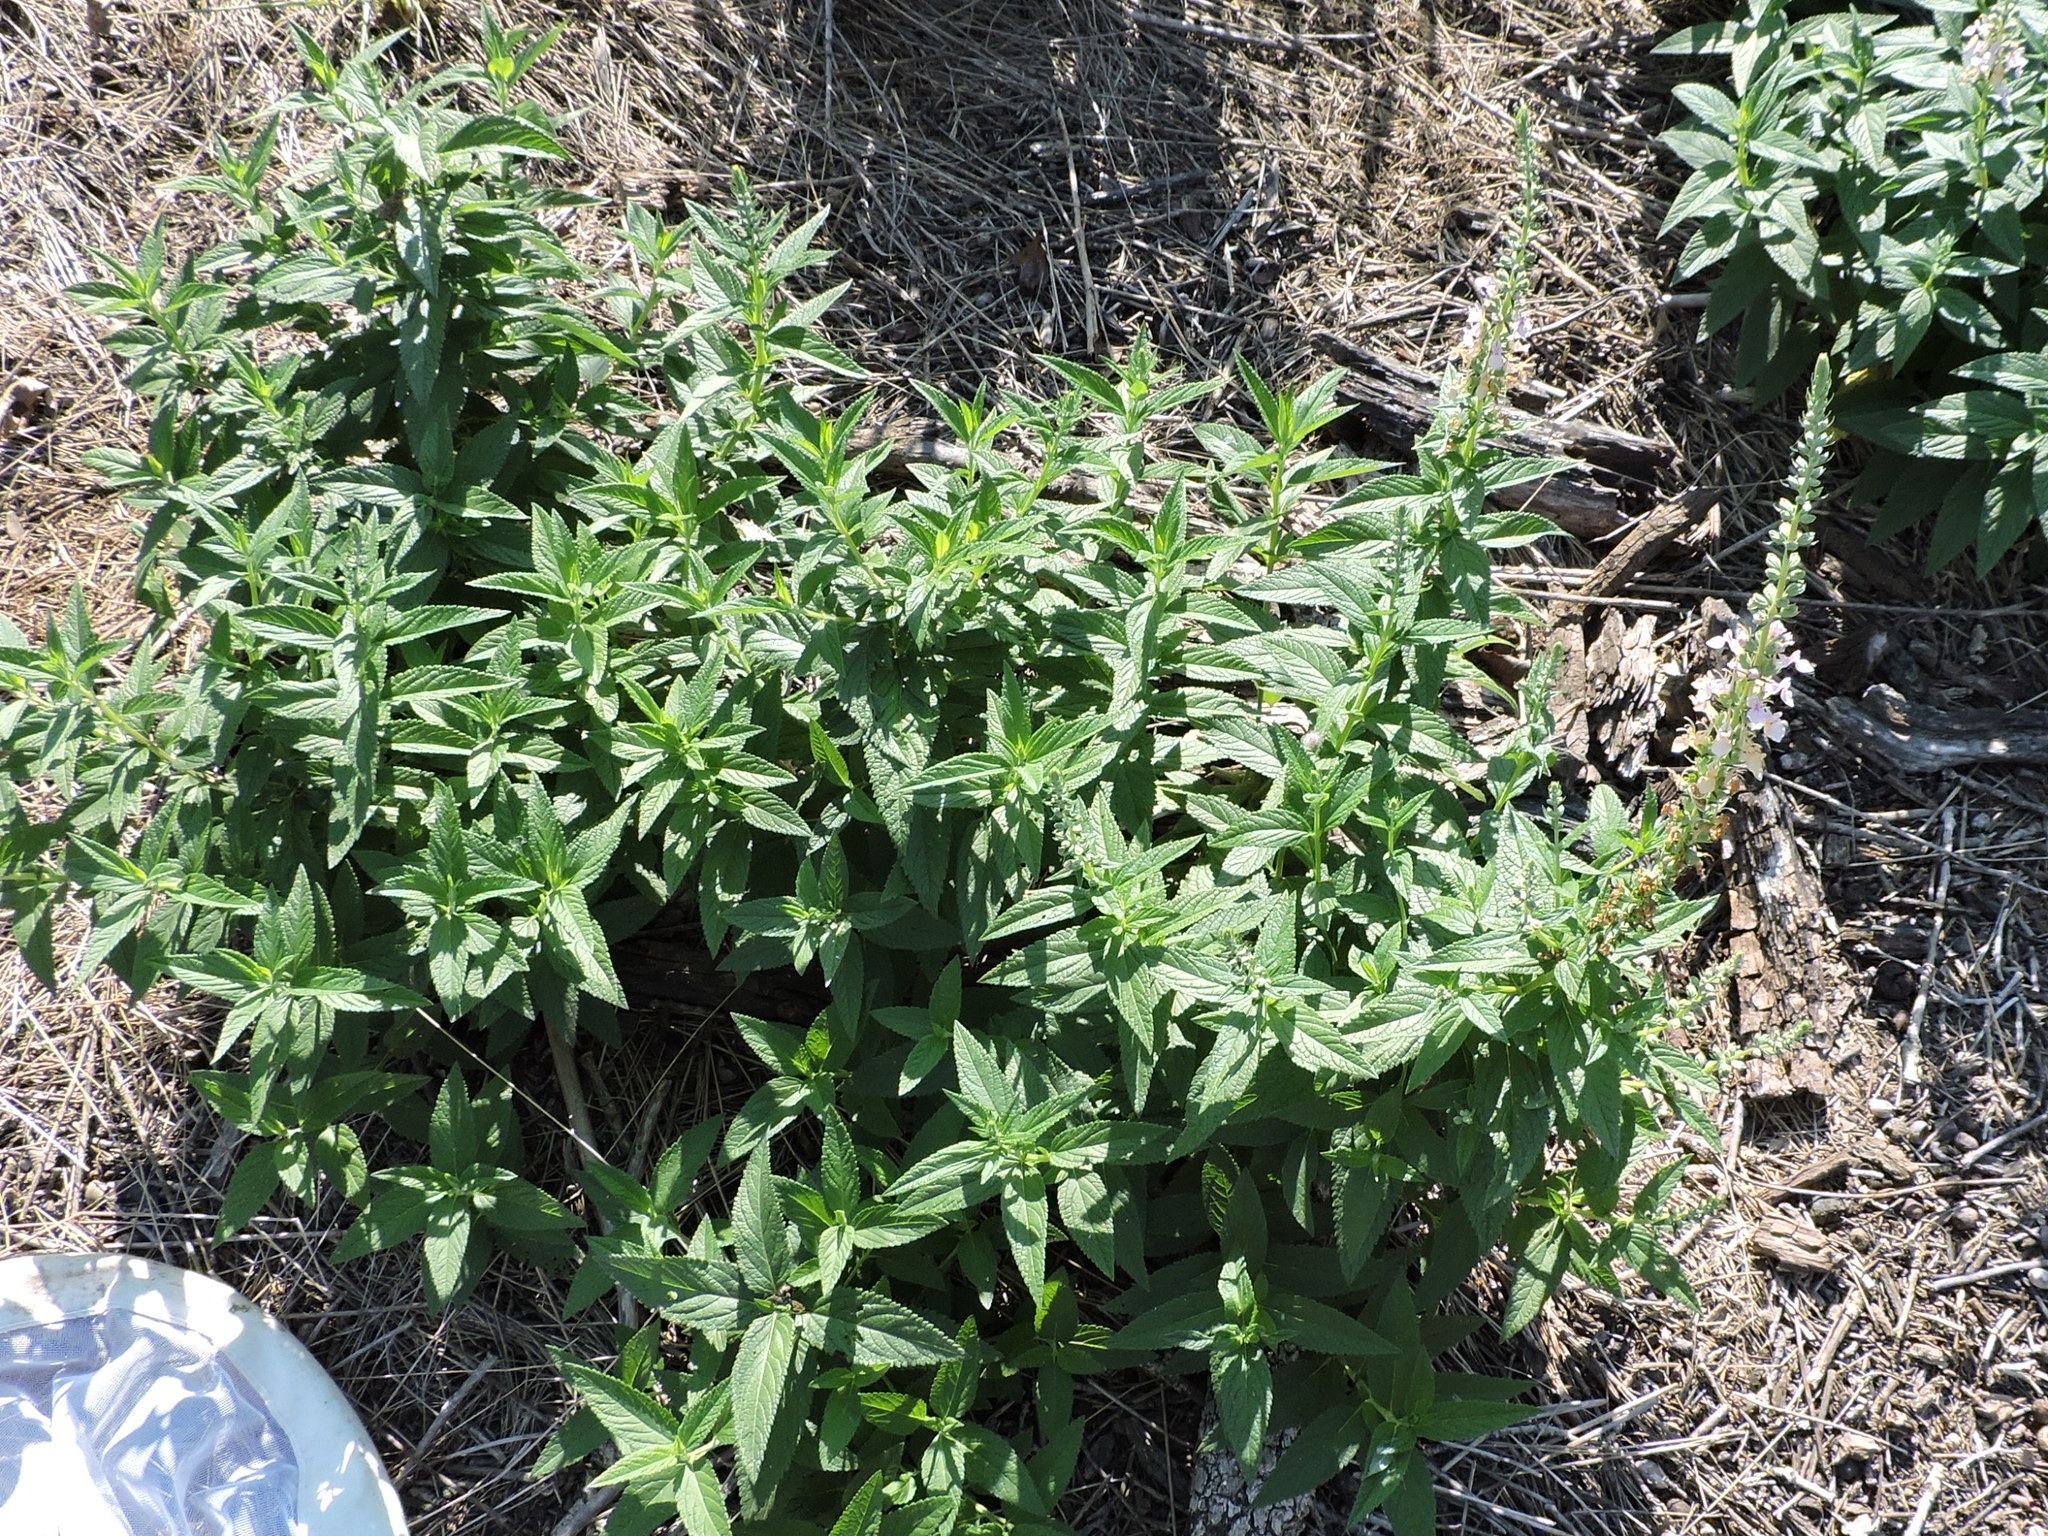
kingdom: Plantae
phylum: Tracheophyta
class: Magnoliopsida
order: Lamiales
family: Lamiaceae
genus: Teucrium
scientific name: Teucrium canadense
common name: American germander
